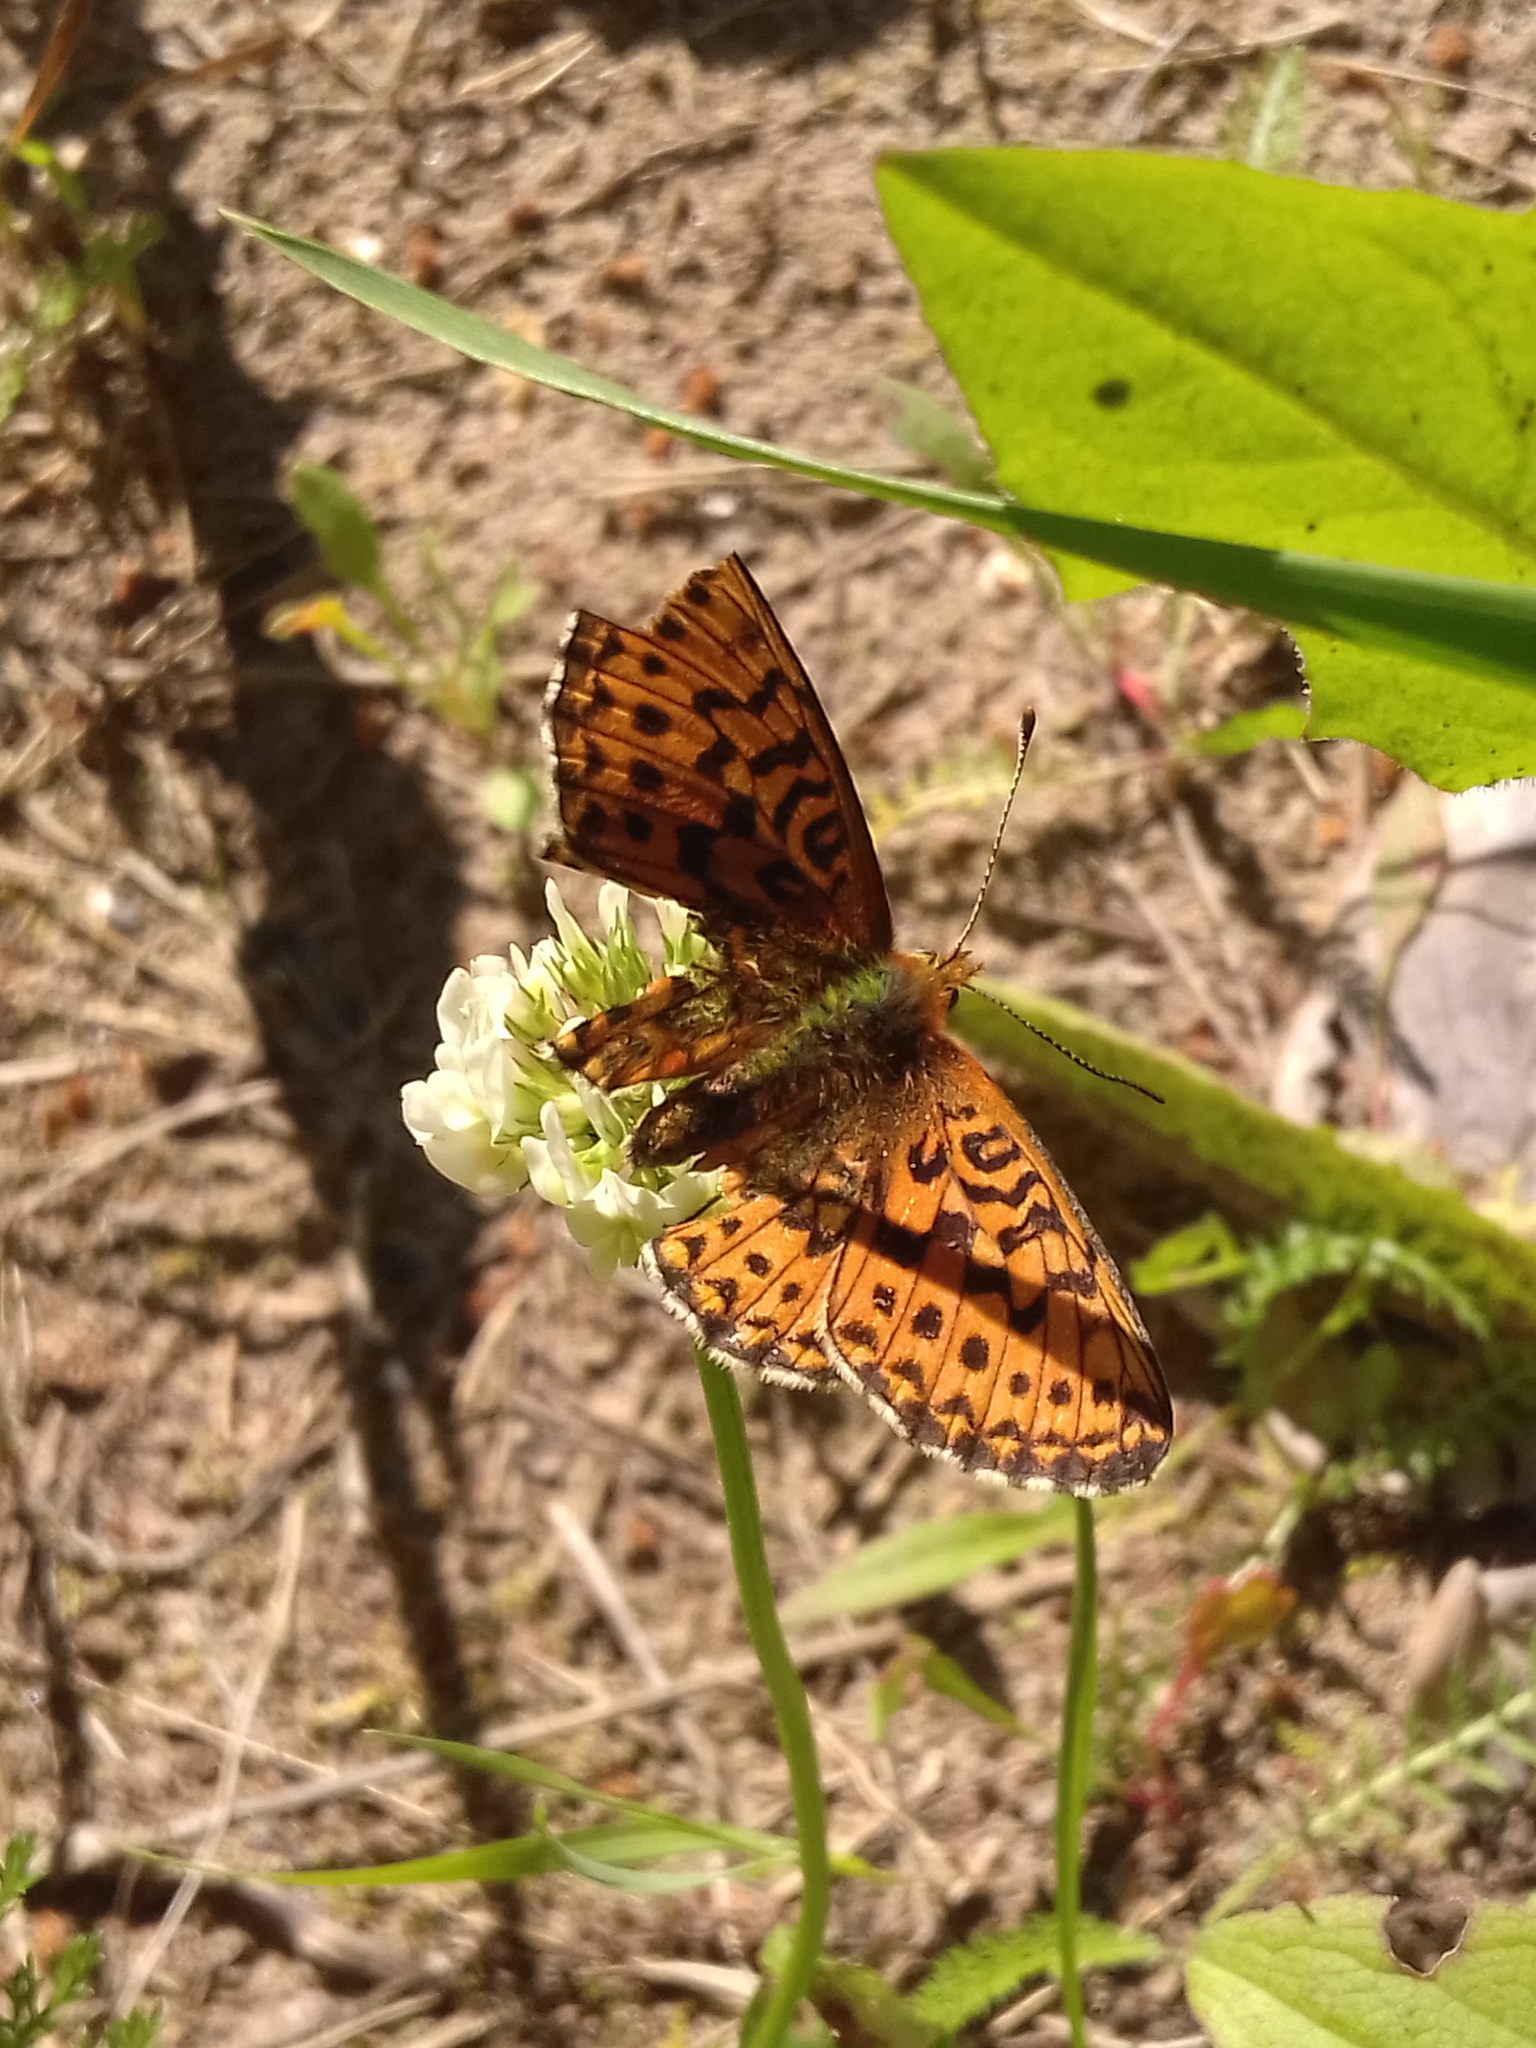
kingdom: Animalia
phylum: Arthropoda
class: Insecta
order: Lepidoptera
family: Nymphalidae
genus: Clossiana
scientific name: Clossiana euphrosyne
